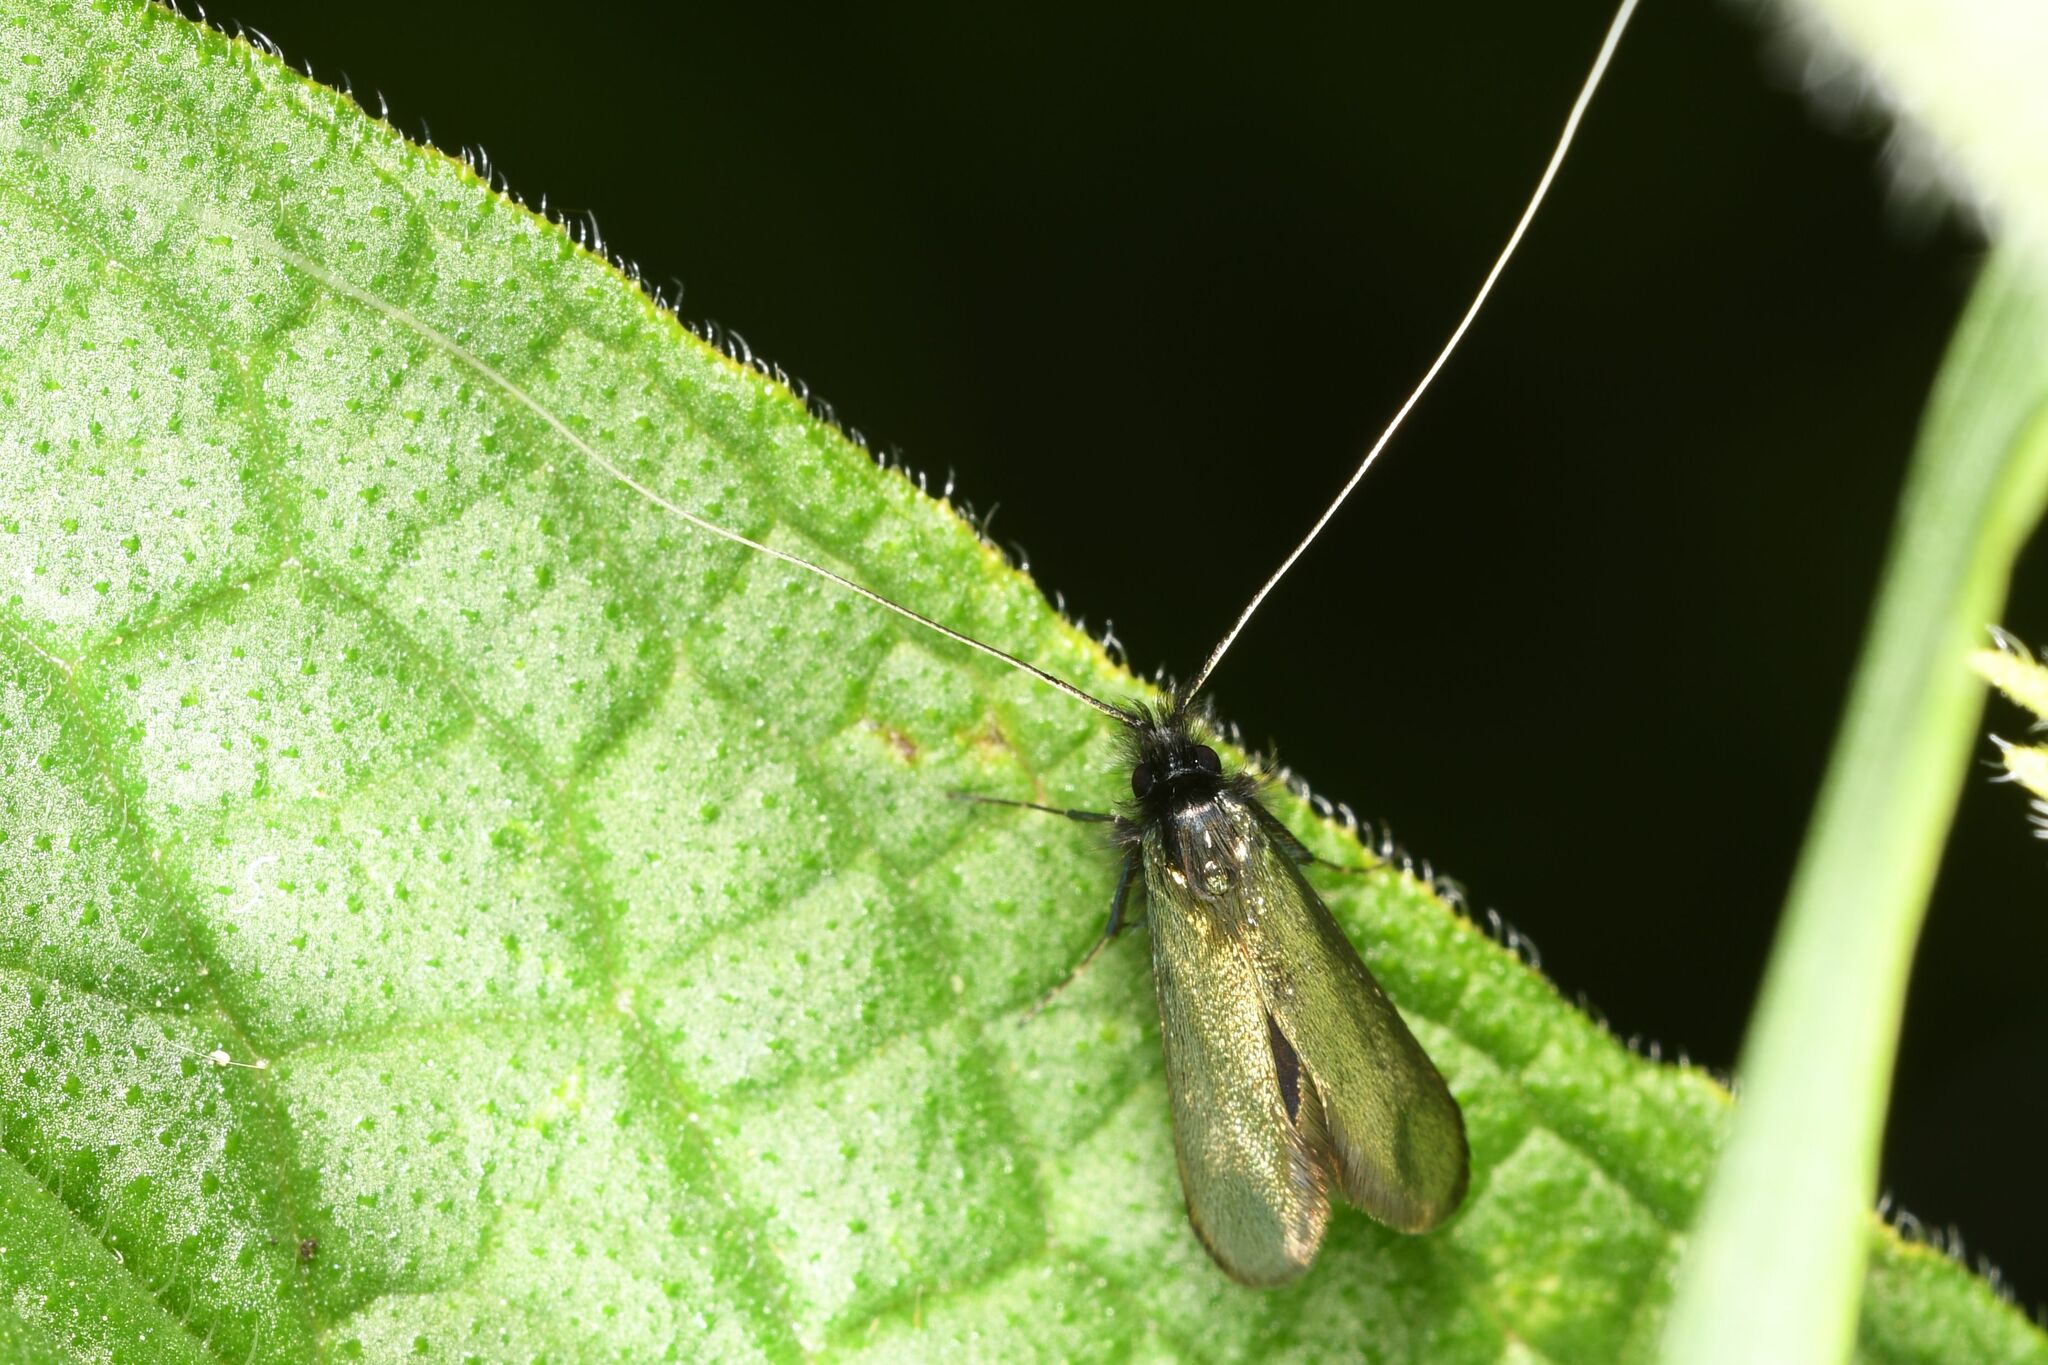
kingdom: Animalia
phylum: Arthropoda
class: Insecta
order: Lepidoptera
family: Adelidae
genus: Adela
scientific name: Adela viridella
